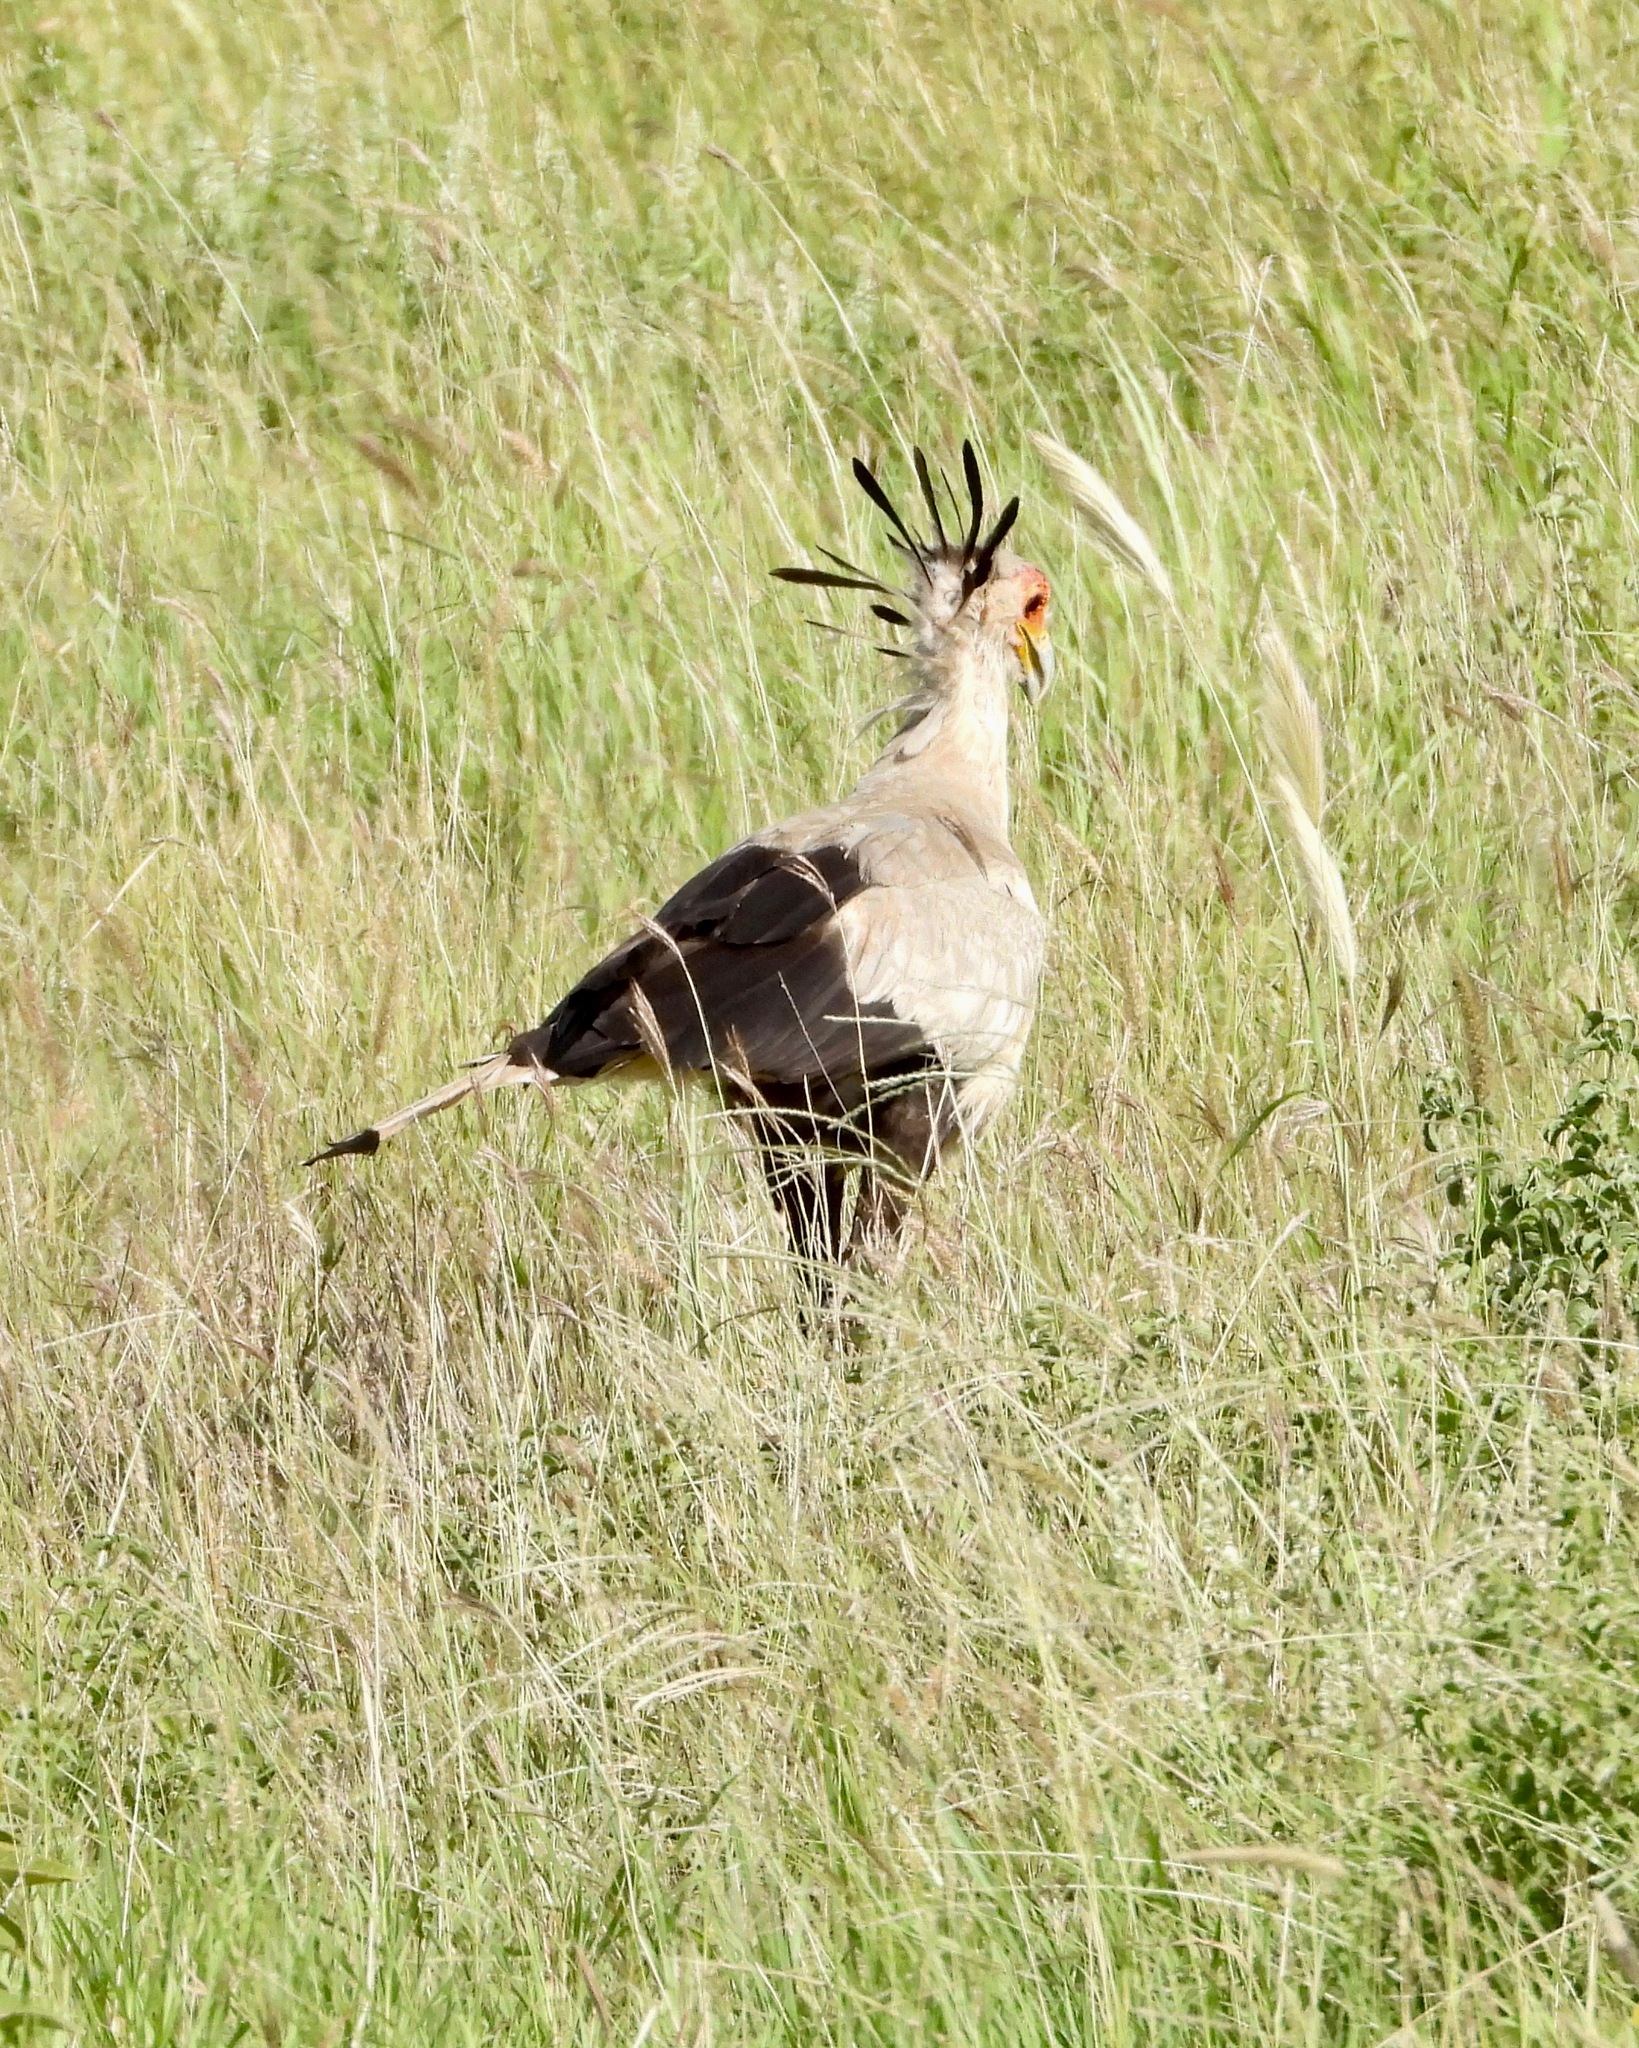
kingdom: Animalia
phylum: Chordata
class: Aves
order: Accipitriformes
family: Sagittariidae
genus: Sagittarius
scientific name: Sagittarius serpentarius
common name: Secretarybird
